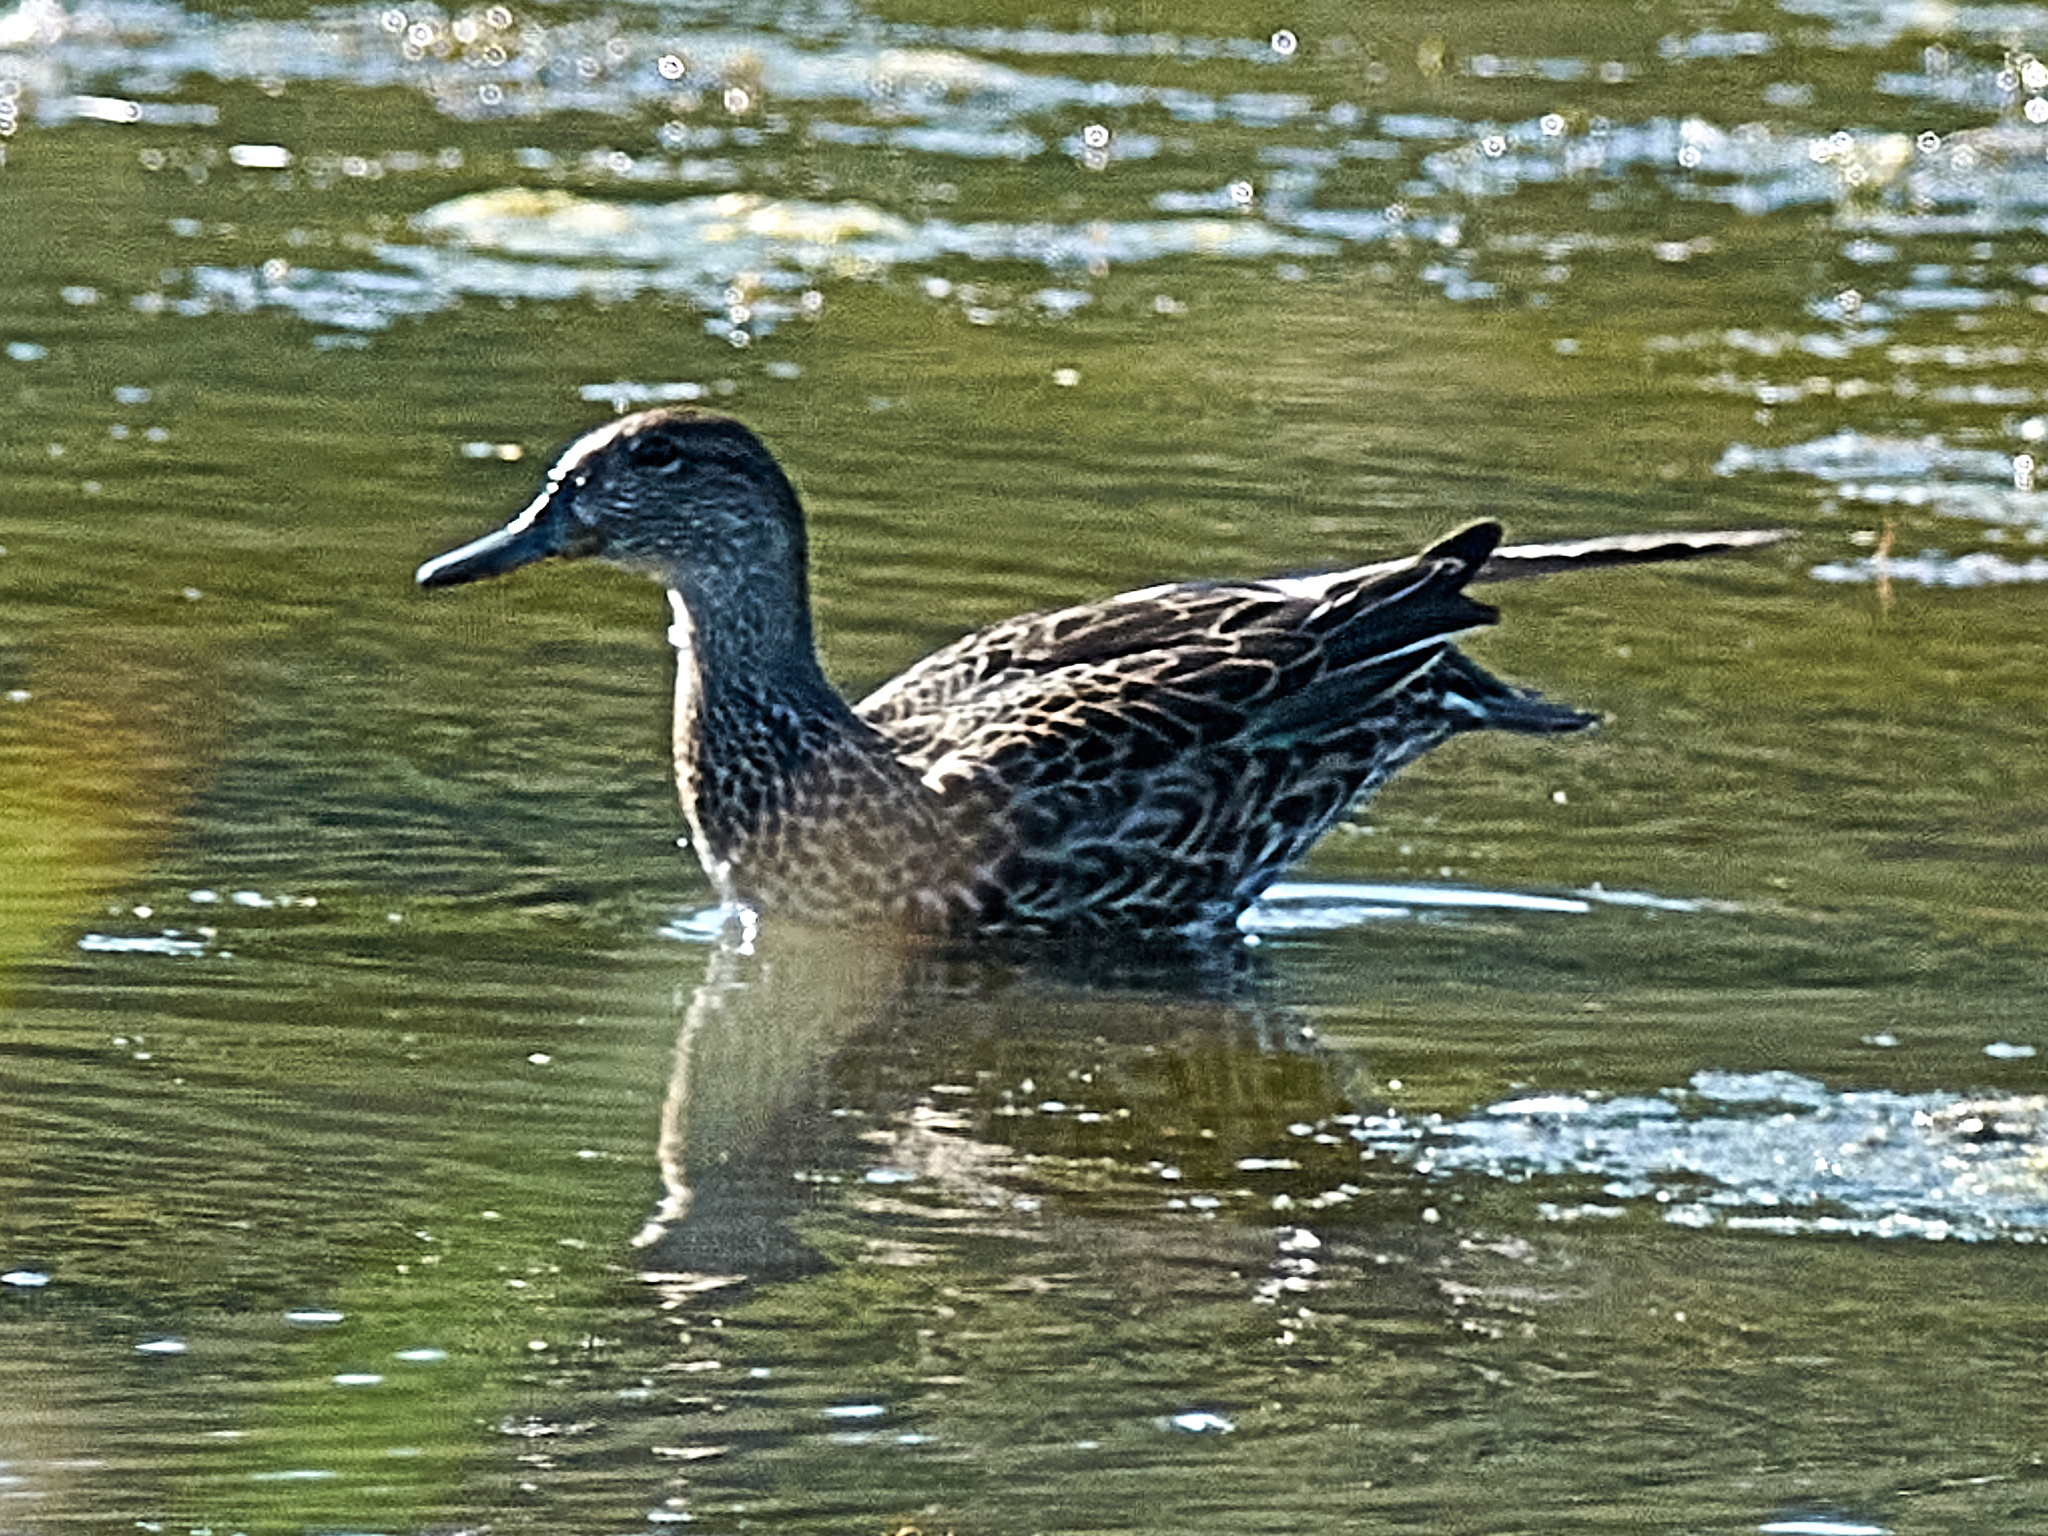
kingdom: Animalia
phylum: Chordata
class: Aves
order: Anseriformes
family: Anatidae
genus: Anas
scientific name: Anas crecca
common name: Eurasian teal
